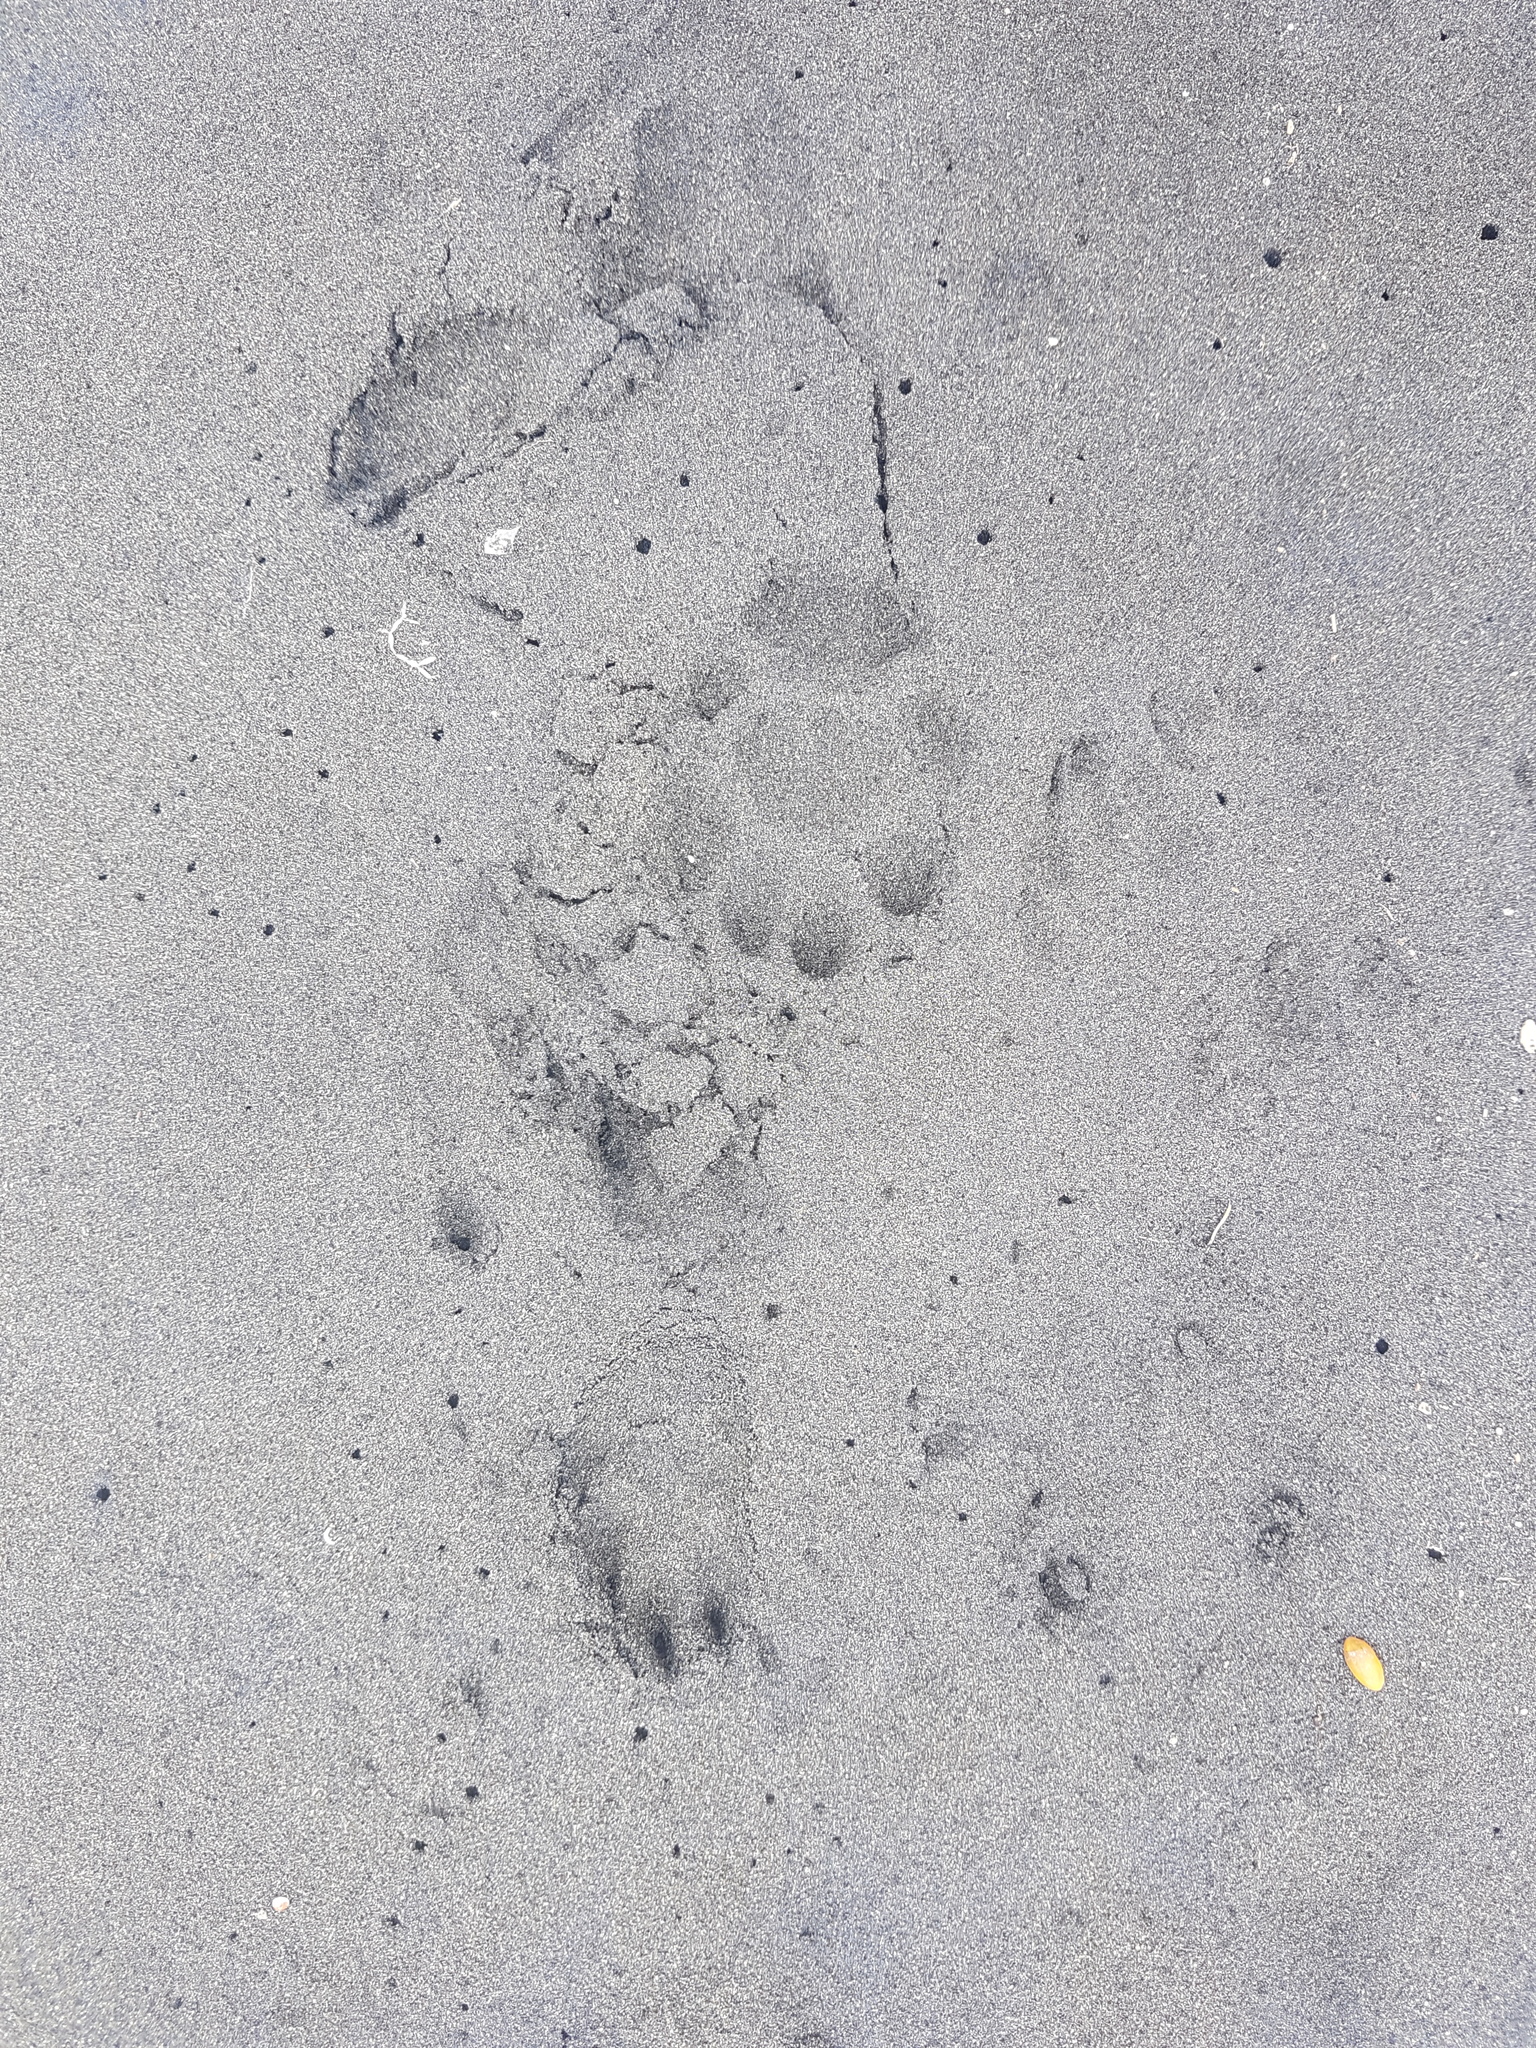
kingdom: Animalia
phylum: Chordata
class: Mammalia
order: Carnivora
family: Felidae
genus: Felis
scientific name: Felis catus
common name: Domestic cat
